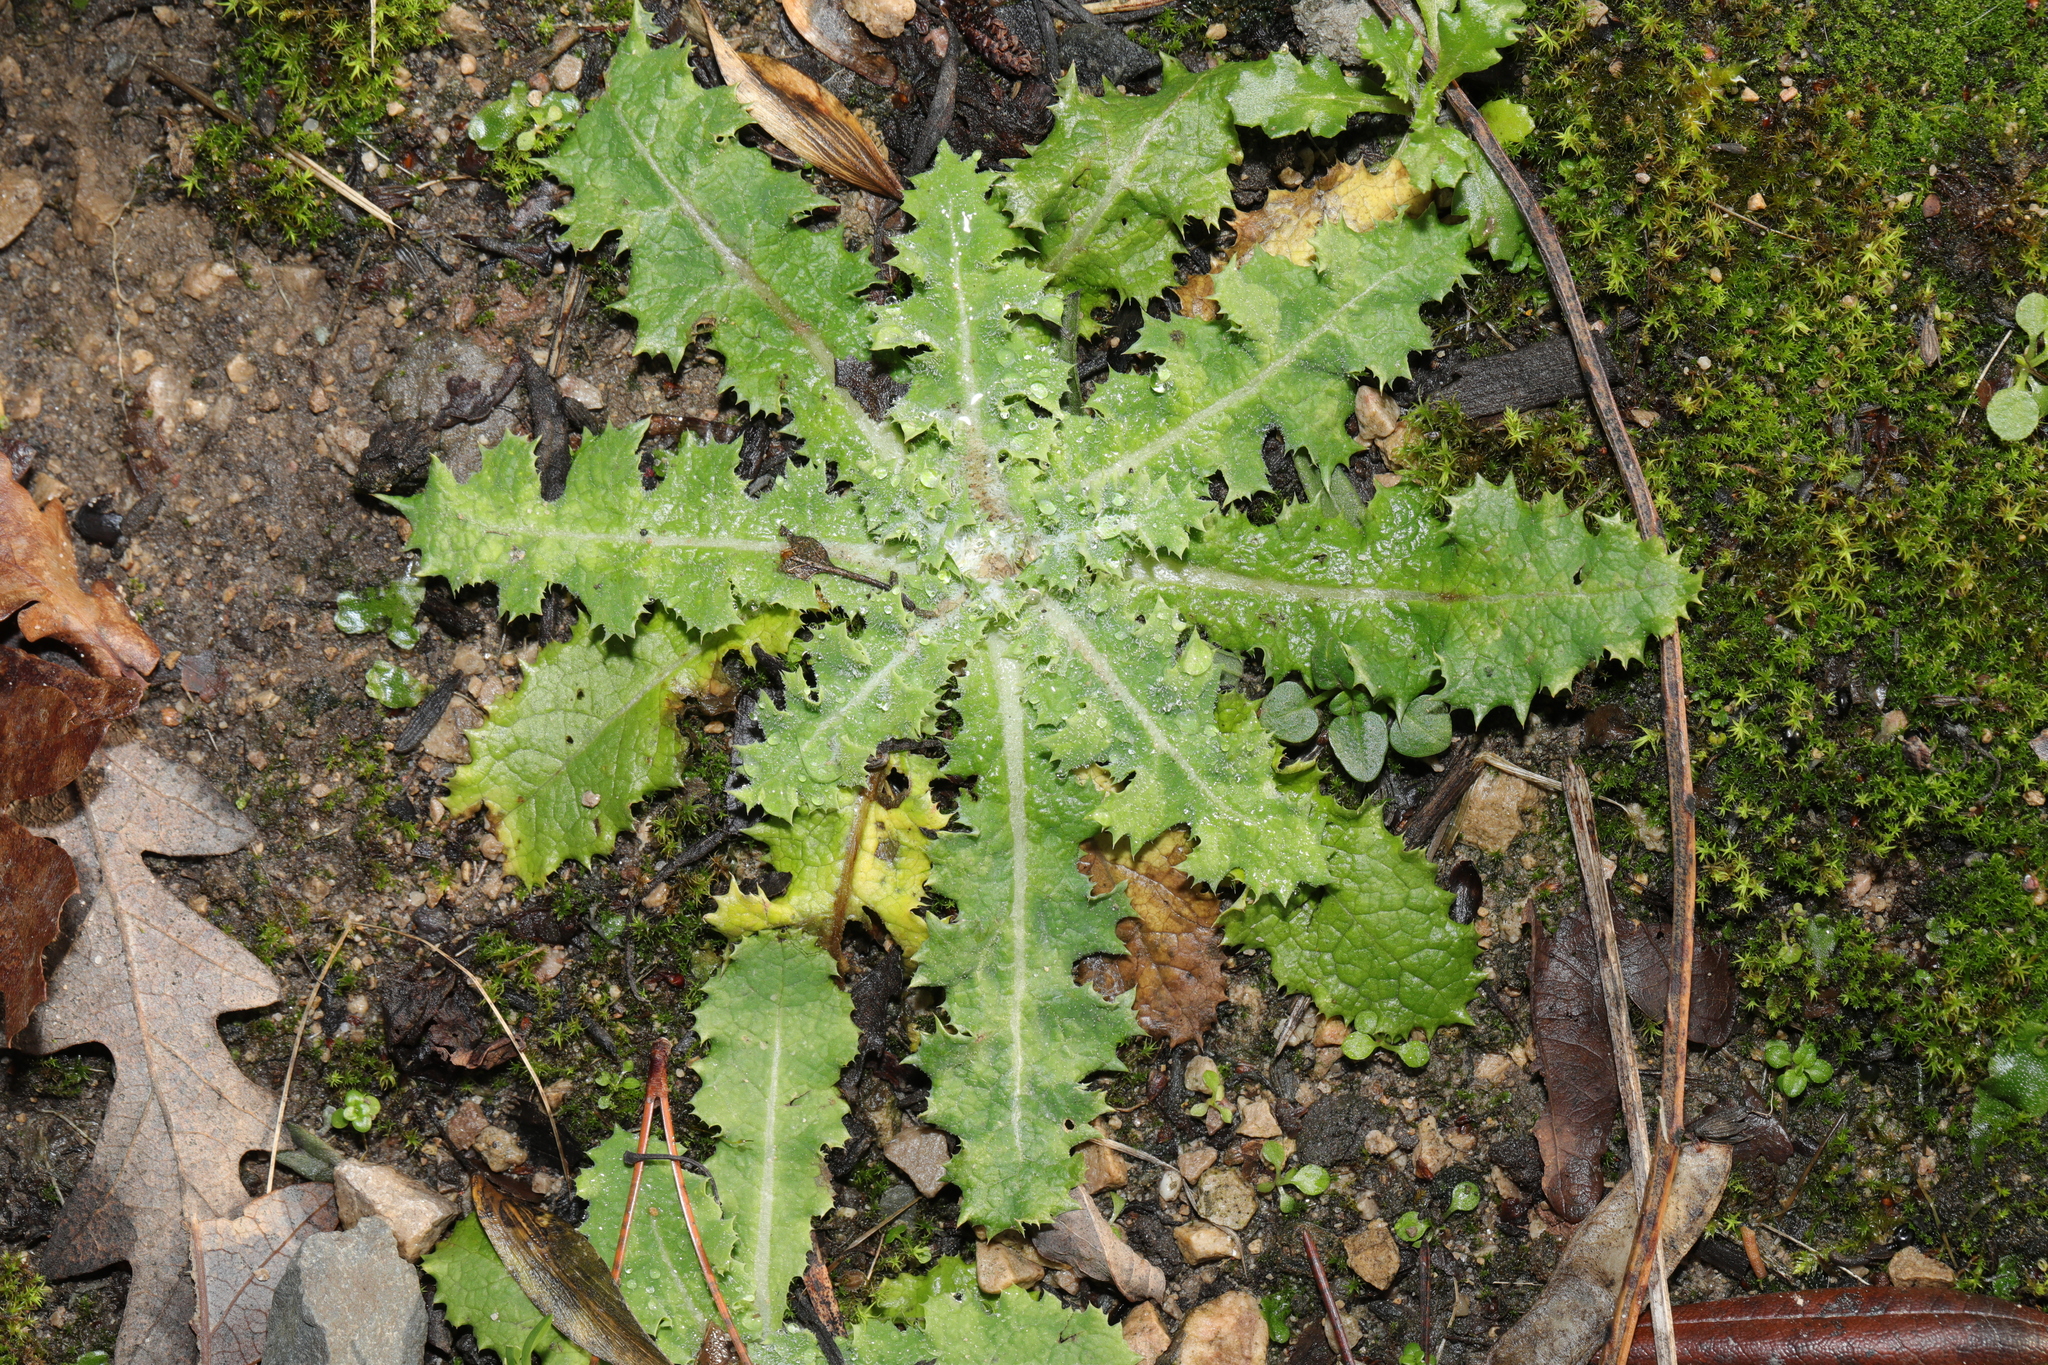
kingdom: Plantae
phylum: Tracheophyta
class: Magnoliopsida
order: Asterales
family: Asteraceae
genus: Sonchus
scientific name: Sonchus asper
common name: Prickly sow-thistle
